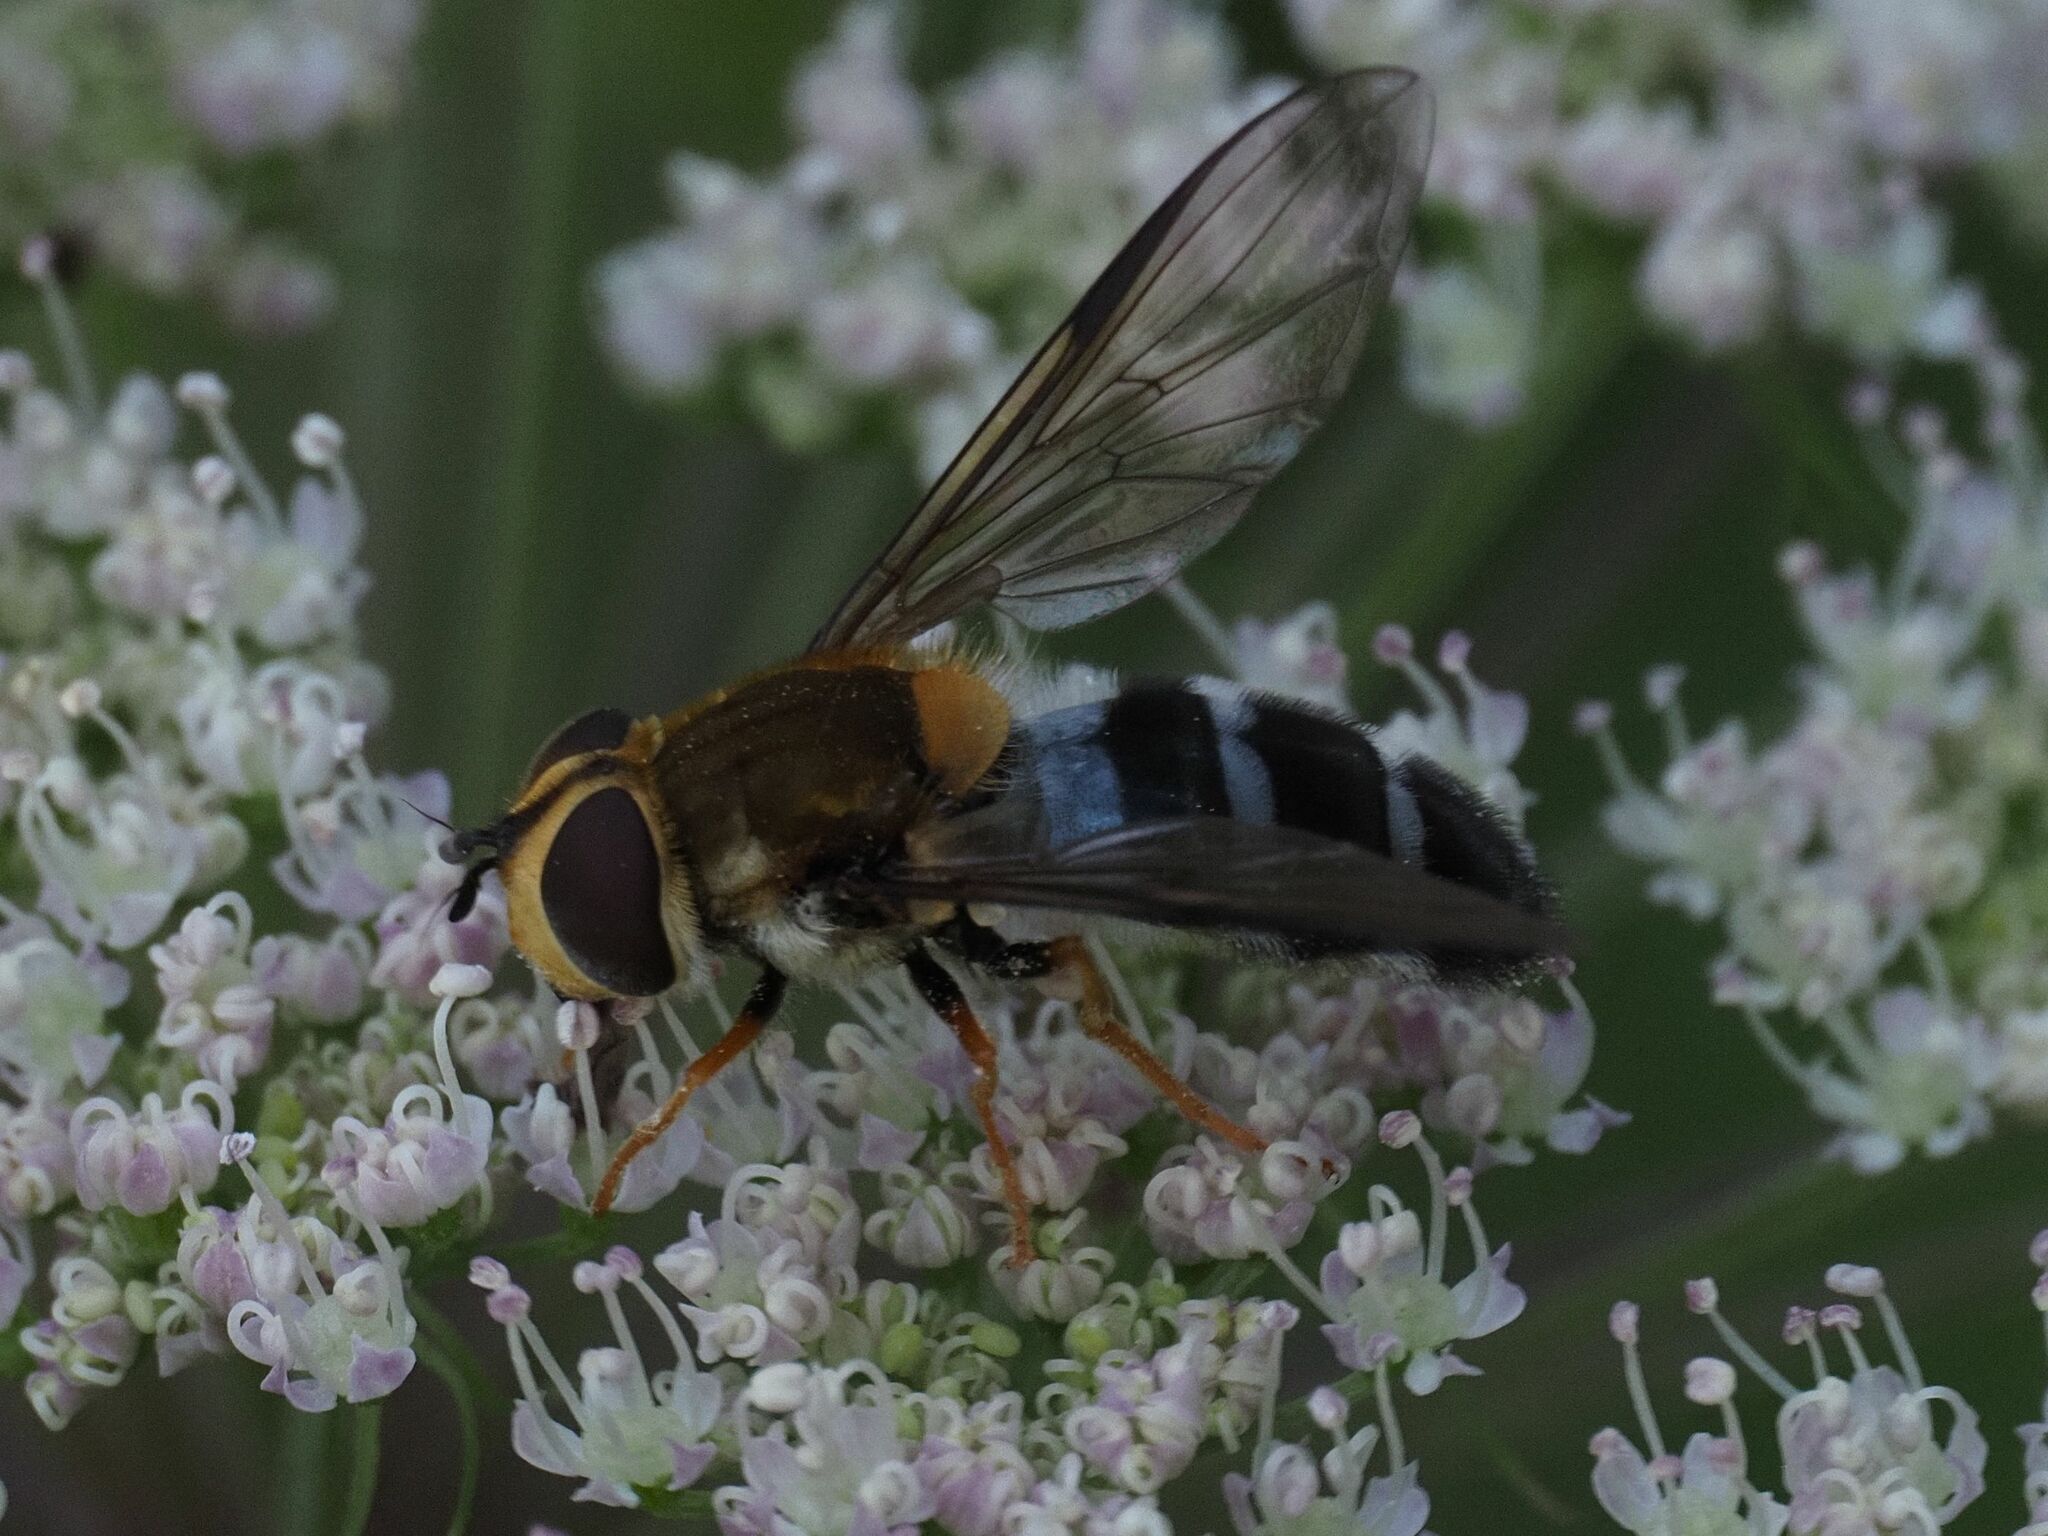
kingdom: Animalia
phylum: Arthropoda
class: Insecta
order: Diptera
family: Syrphidae
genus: Leucozona
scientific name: Leucozona glaucia
